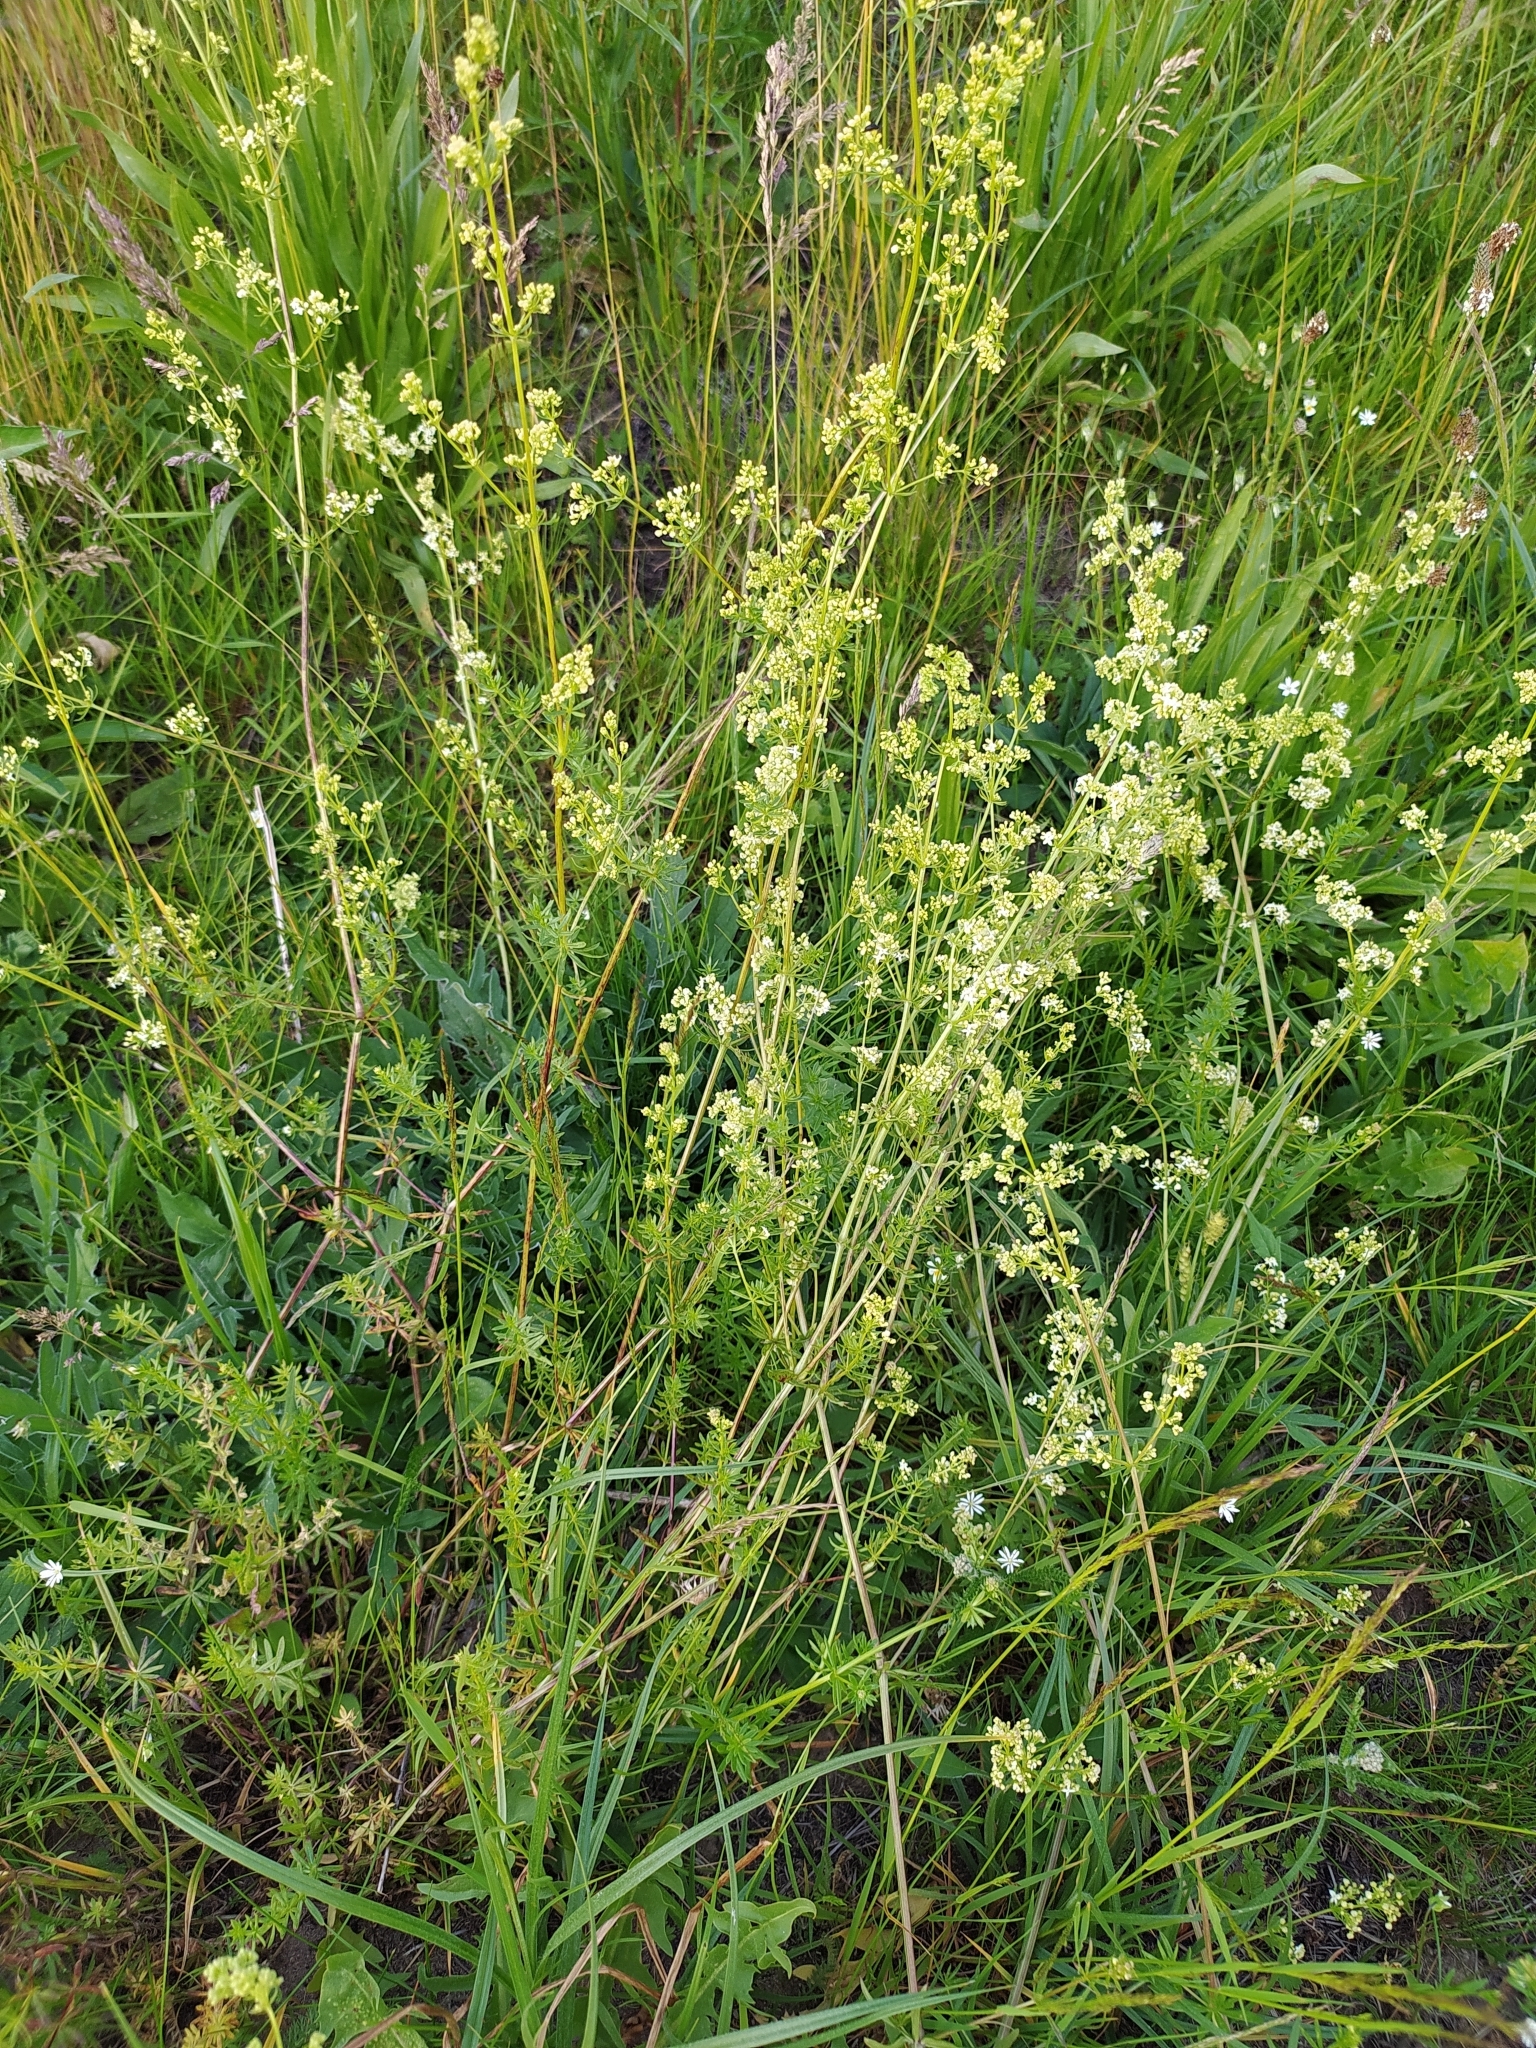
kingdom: Plantae
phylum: Tracheophyta
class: Magnoliopsida
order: Gentianales
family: Rubiaceae
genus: Galium
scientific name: Galium mollugo
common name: Hedge bedstraw
